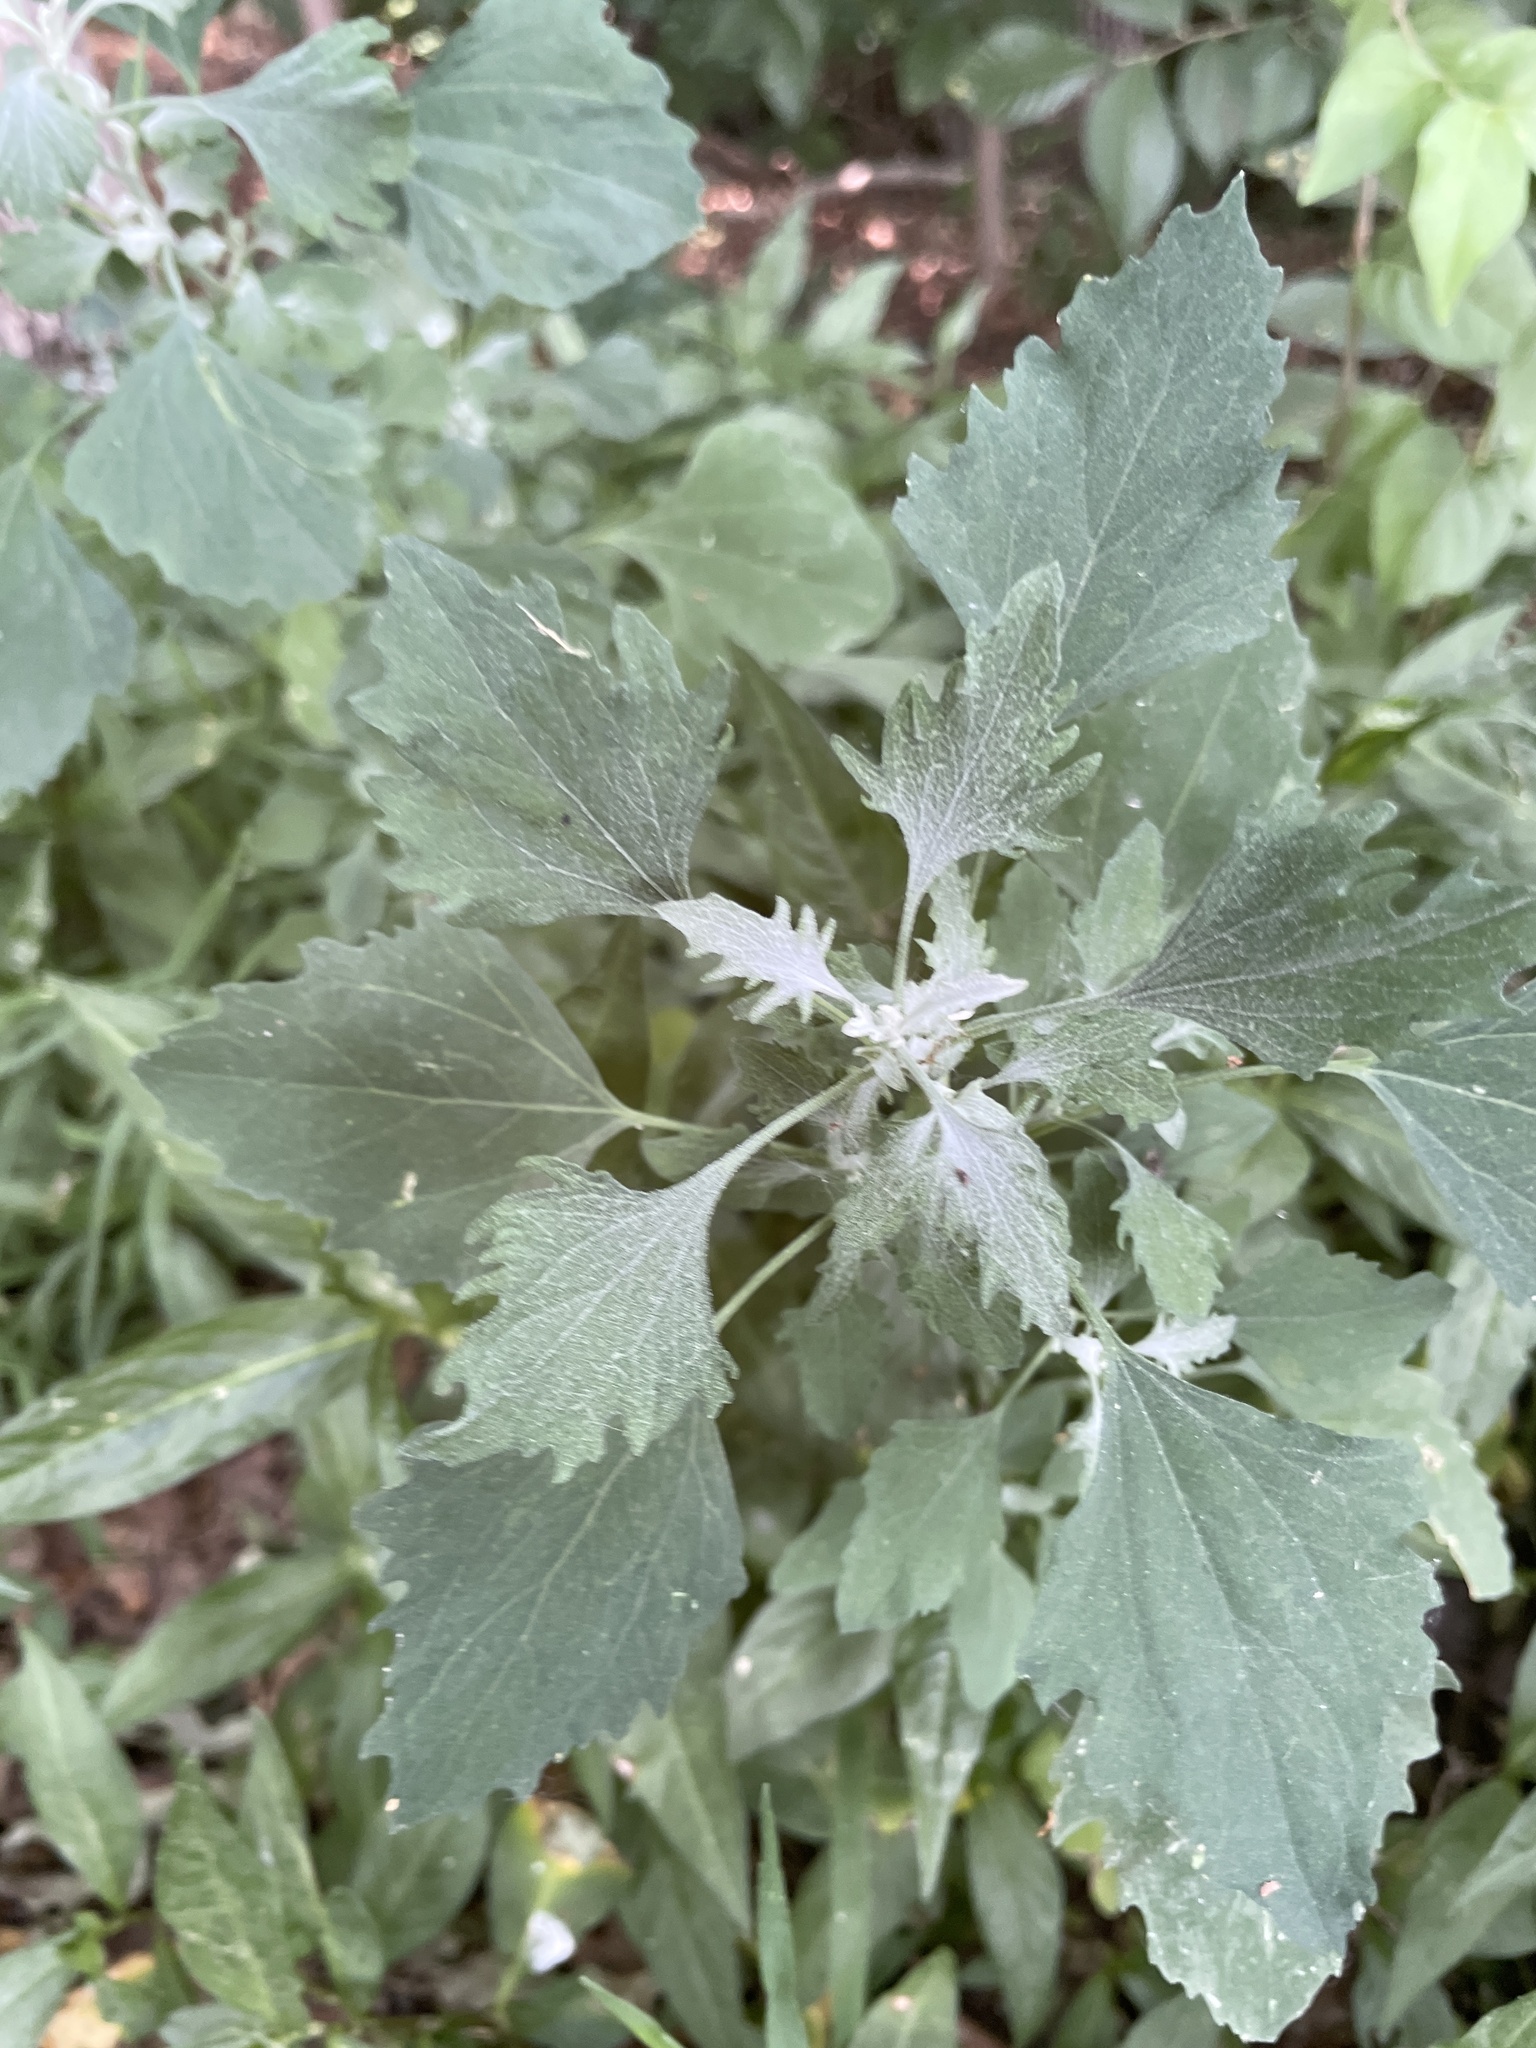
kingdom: Plantae
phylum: Tracheophyta
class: Magnoliopsida
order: Caryophyllales
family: Amaranthaceae
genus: Chenopodium
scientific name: Chenopodium album
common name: Fat-hen
